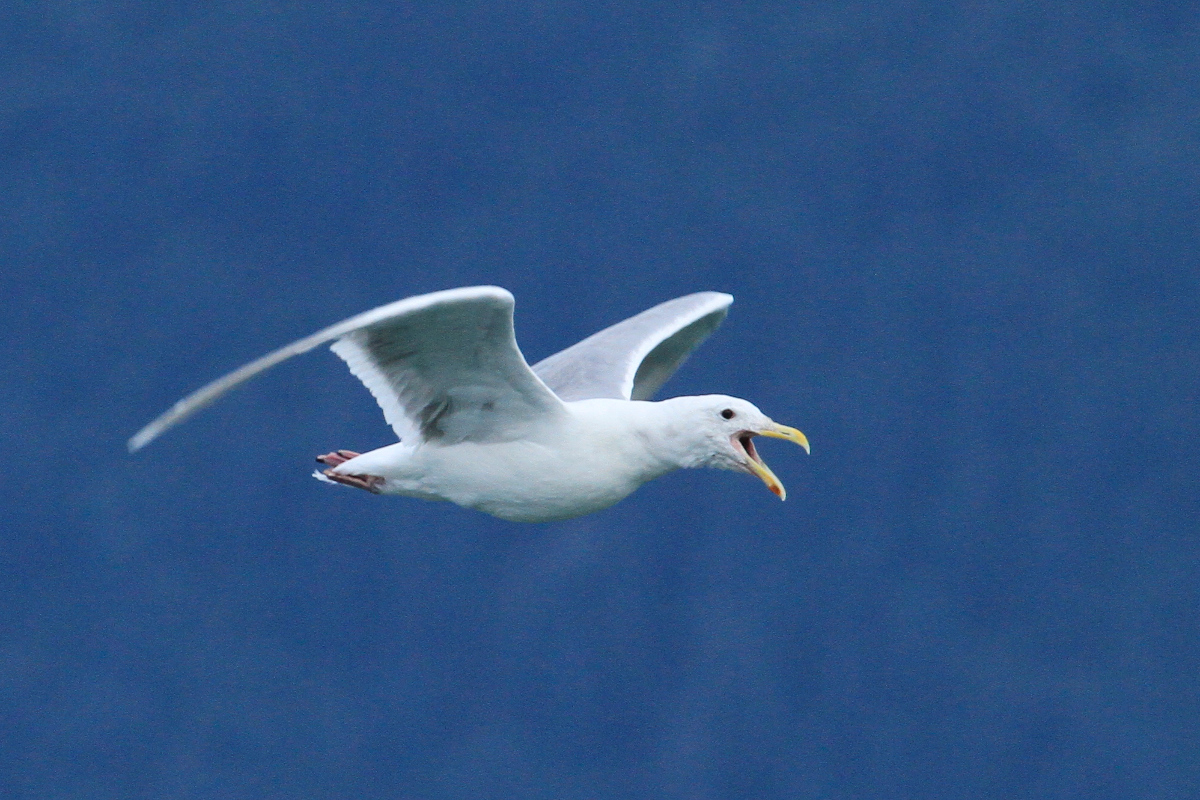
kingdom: Animalia
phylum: Chordata
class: Aves
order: Charadriiformes
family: Laridae
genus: Larus
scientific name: Larus glaucescens
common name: Glaucous-winged gull
